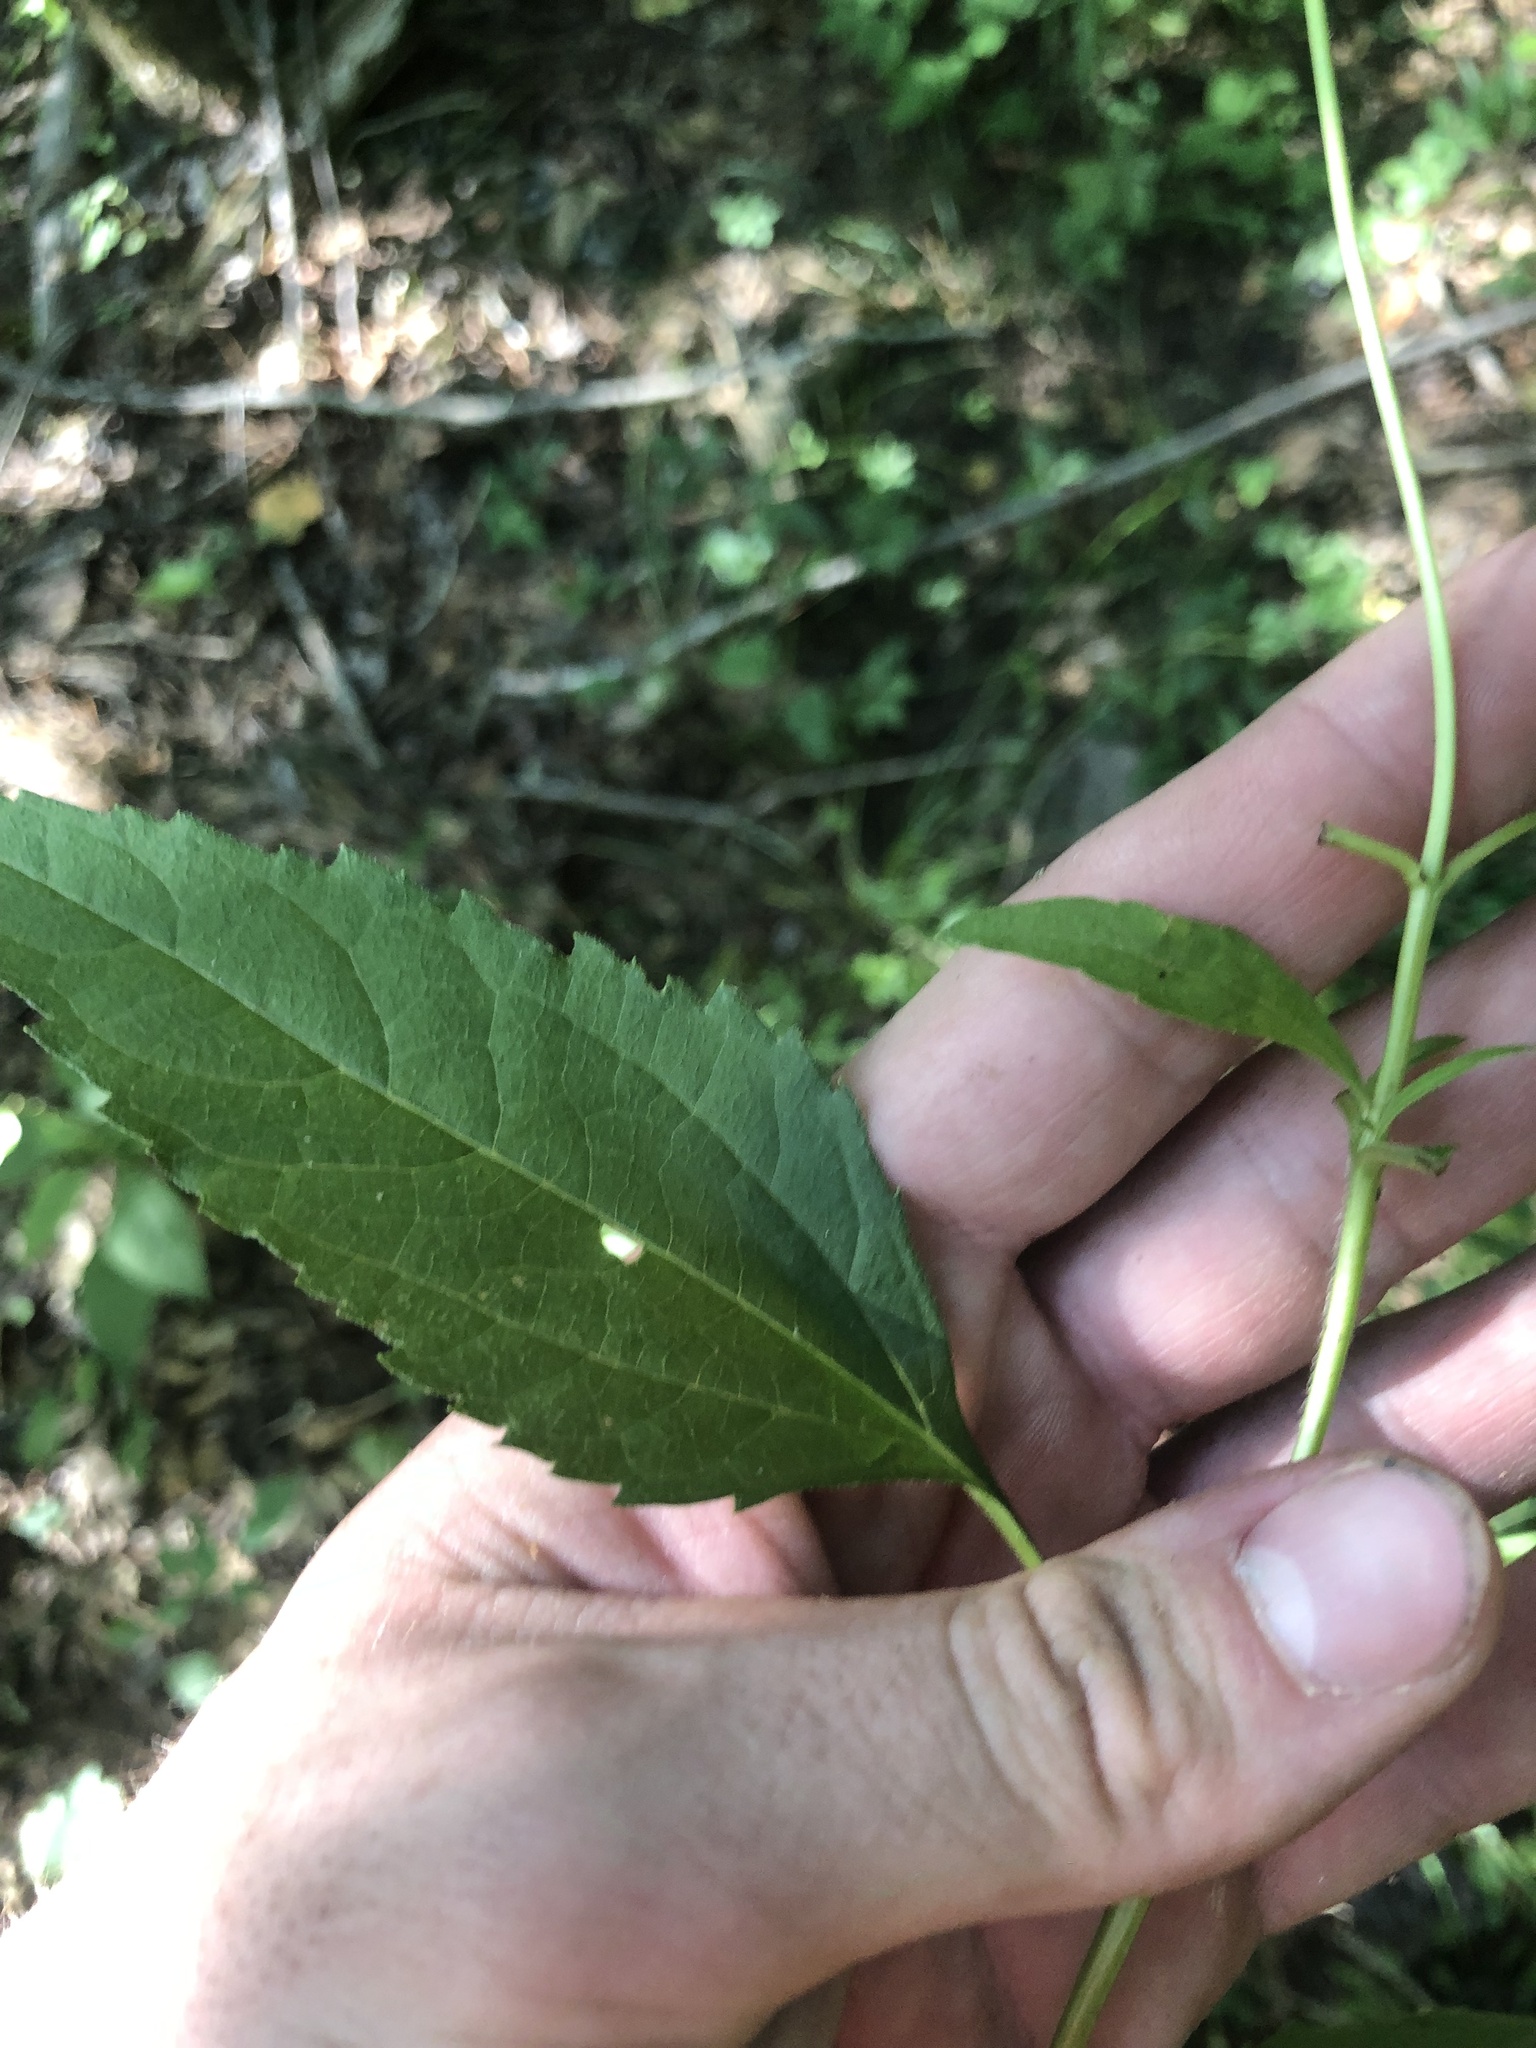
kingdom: Plantae
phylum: Tracheophyta
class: Magnoliopsida
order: Asterales
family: Asteraceae
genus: Heliopsis
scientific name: Heliopsis gracilis
